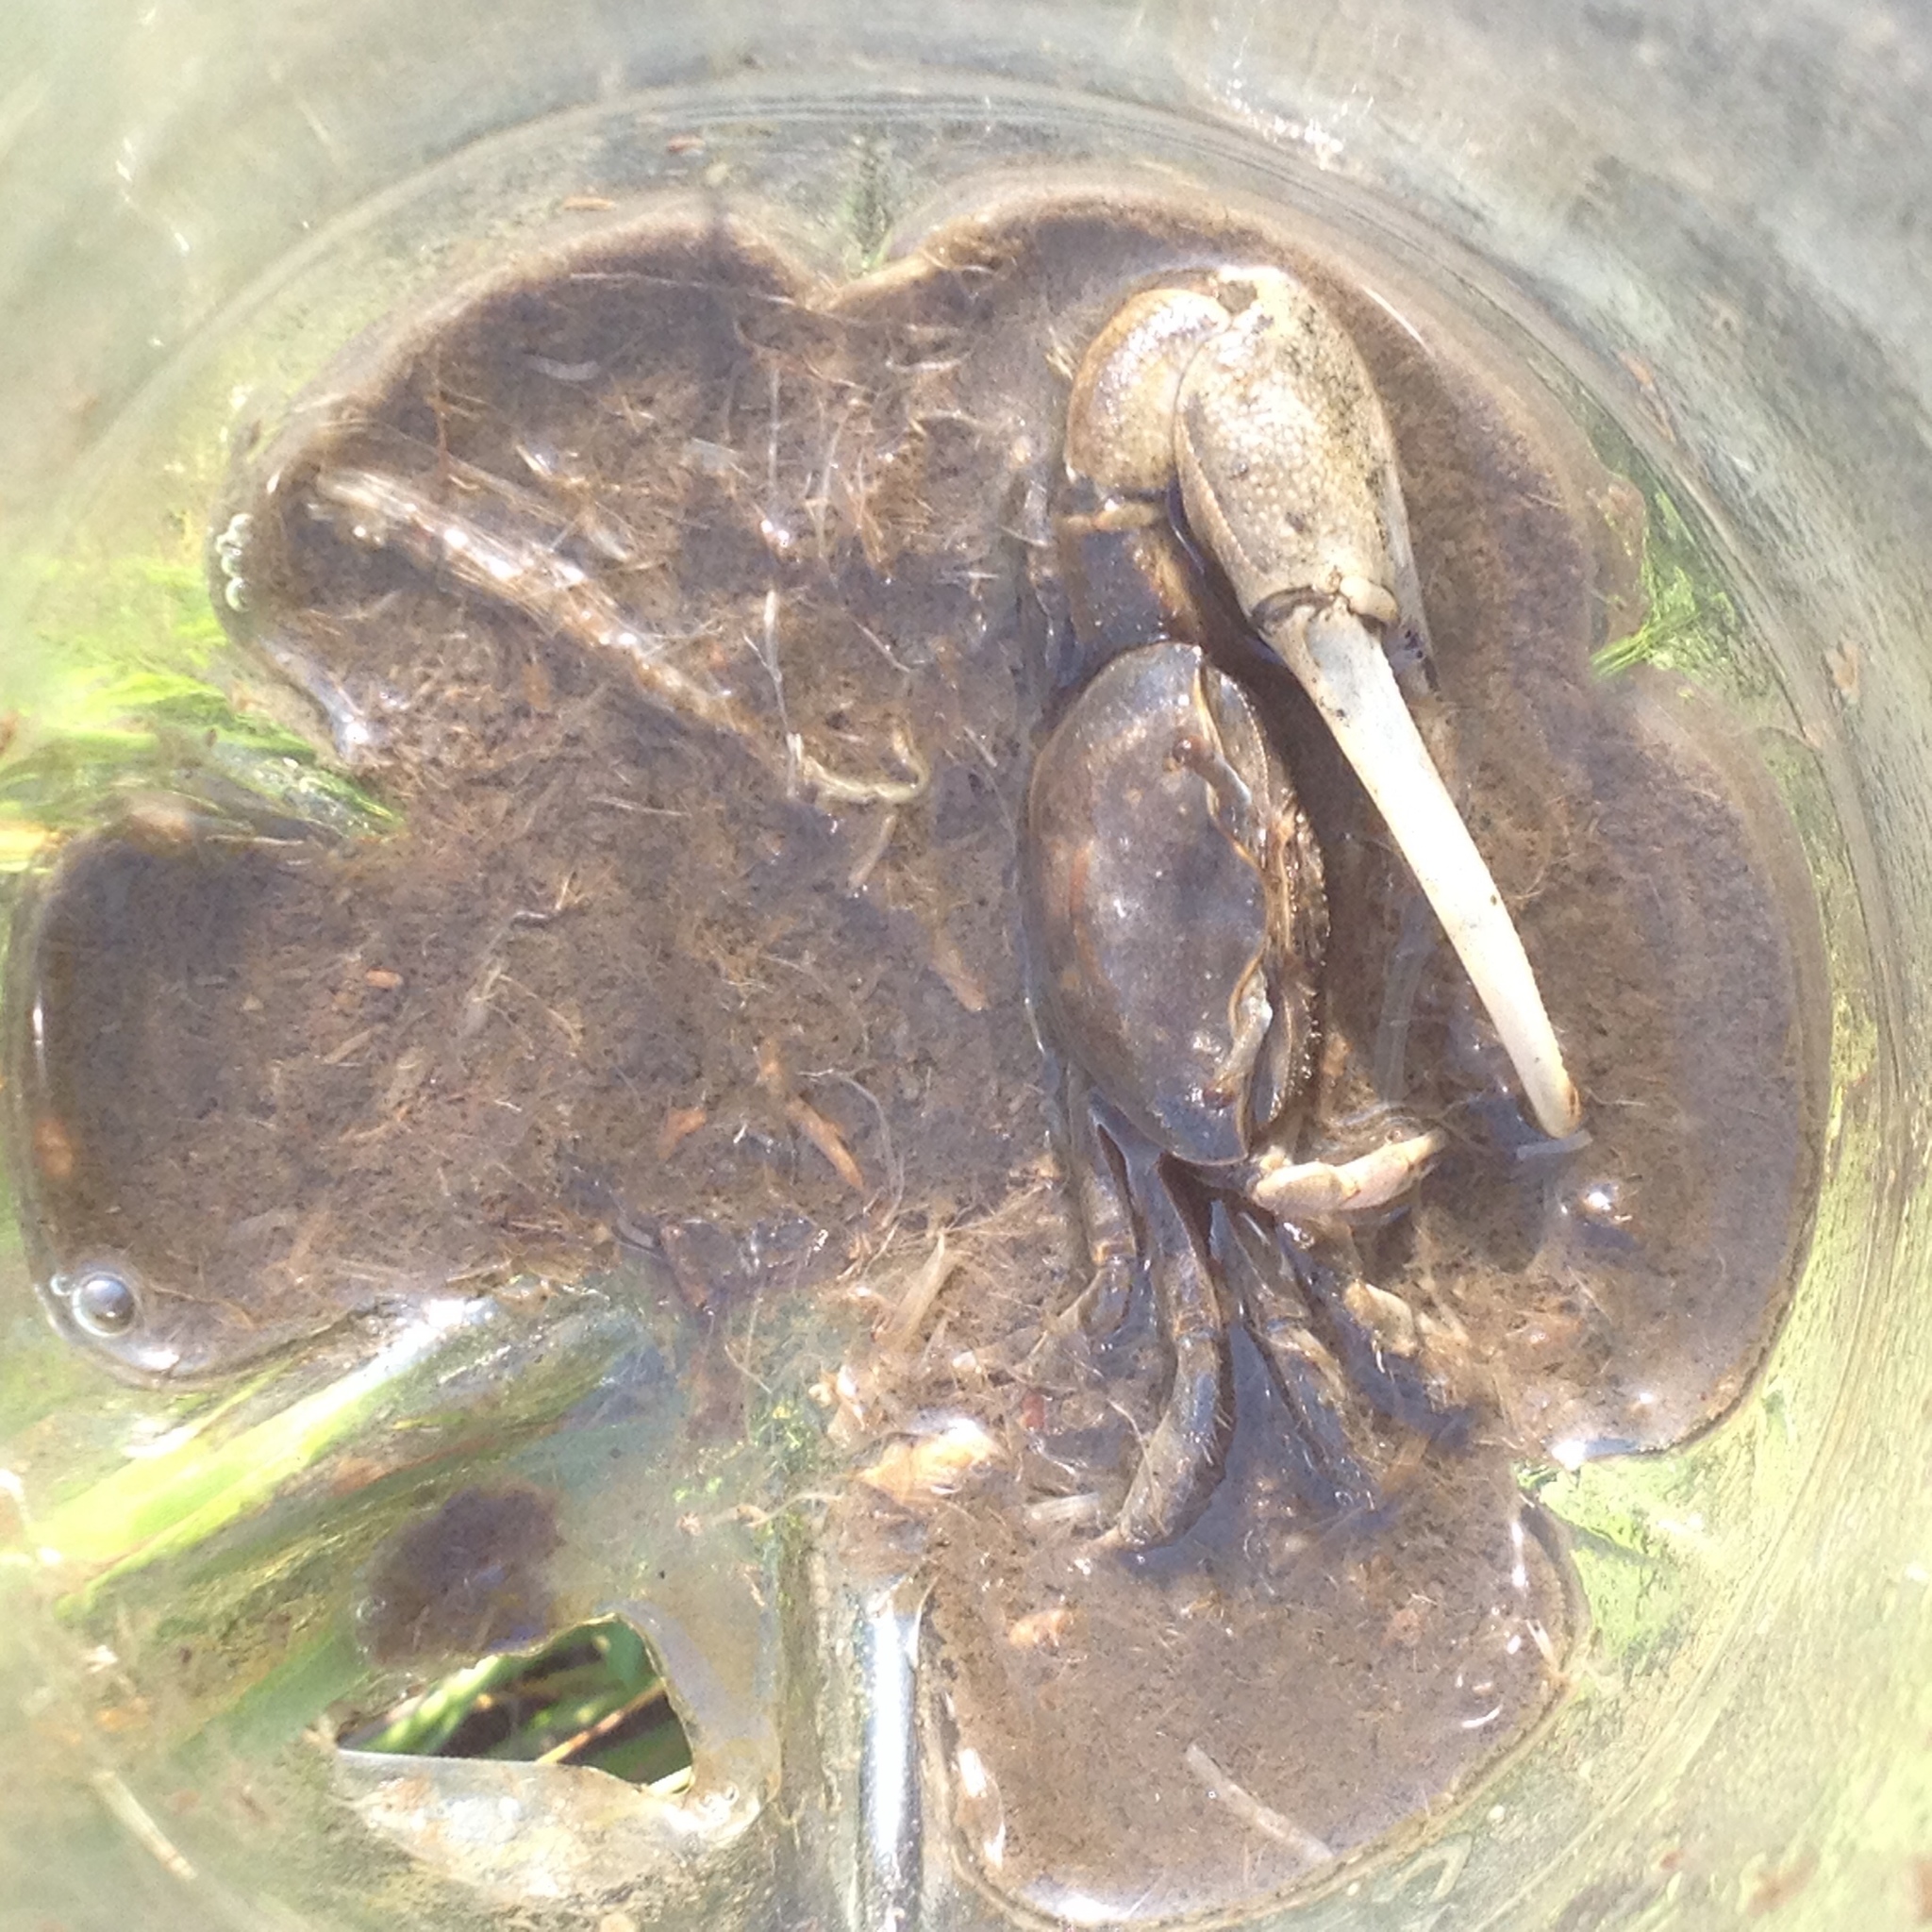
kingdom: Animalia
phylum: Arthropoda
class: Malacostraca
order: Decapoda
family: Ocypodidae
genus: Minuca
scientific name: Minuca pugnax
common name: Mud fiddler crab
